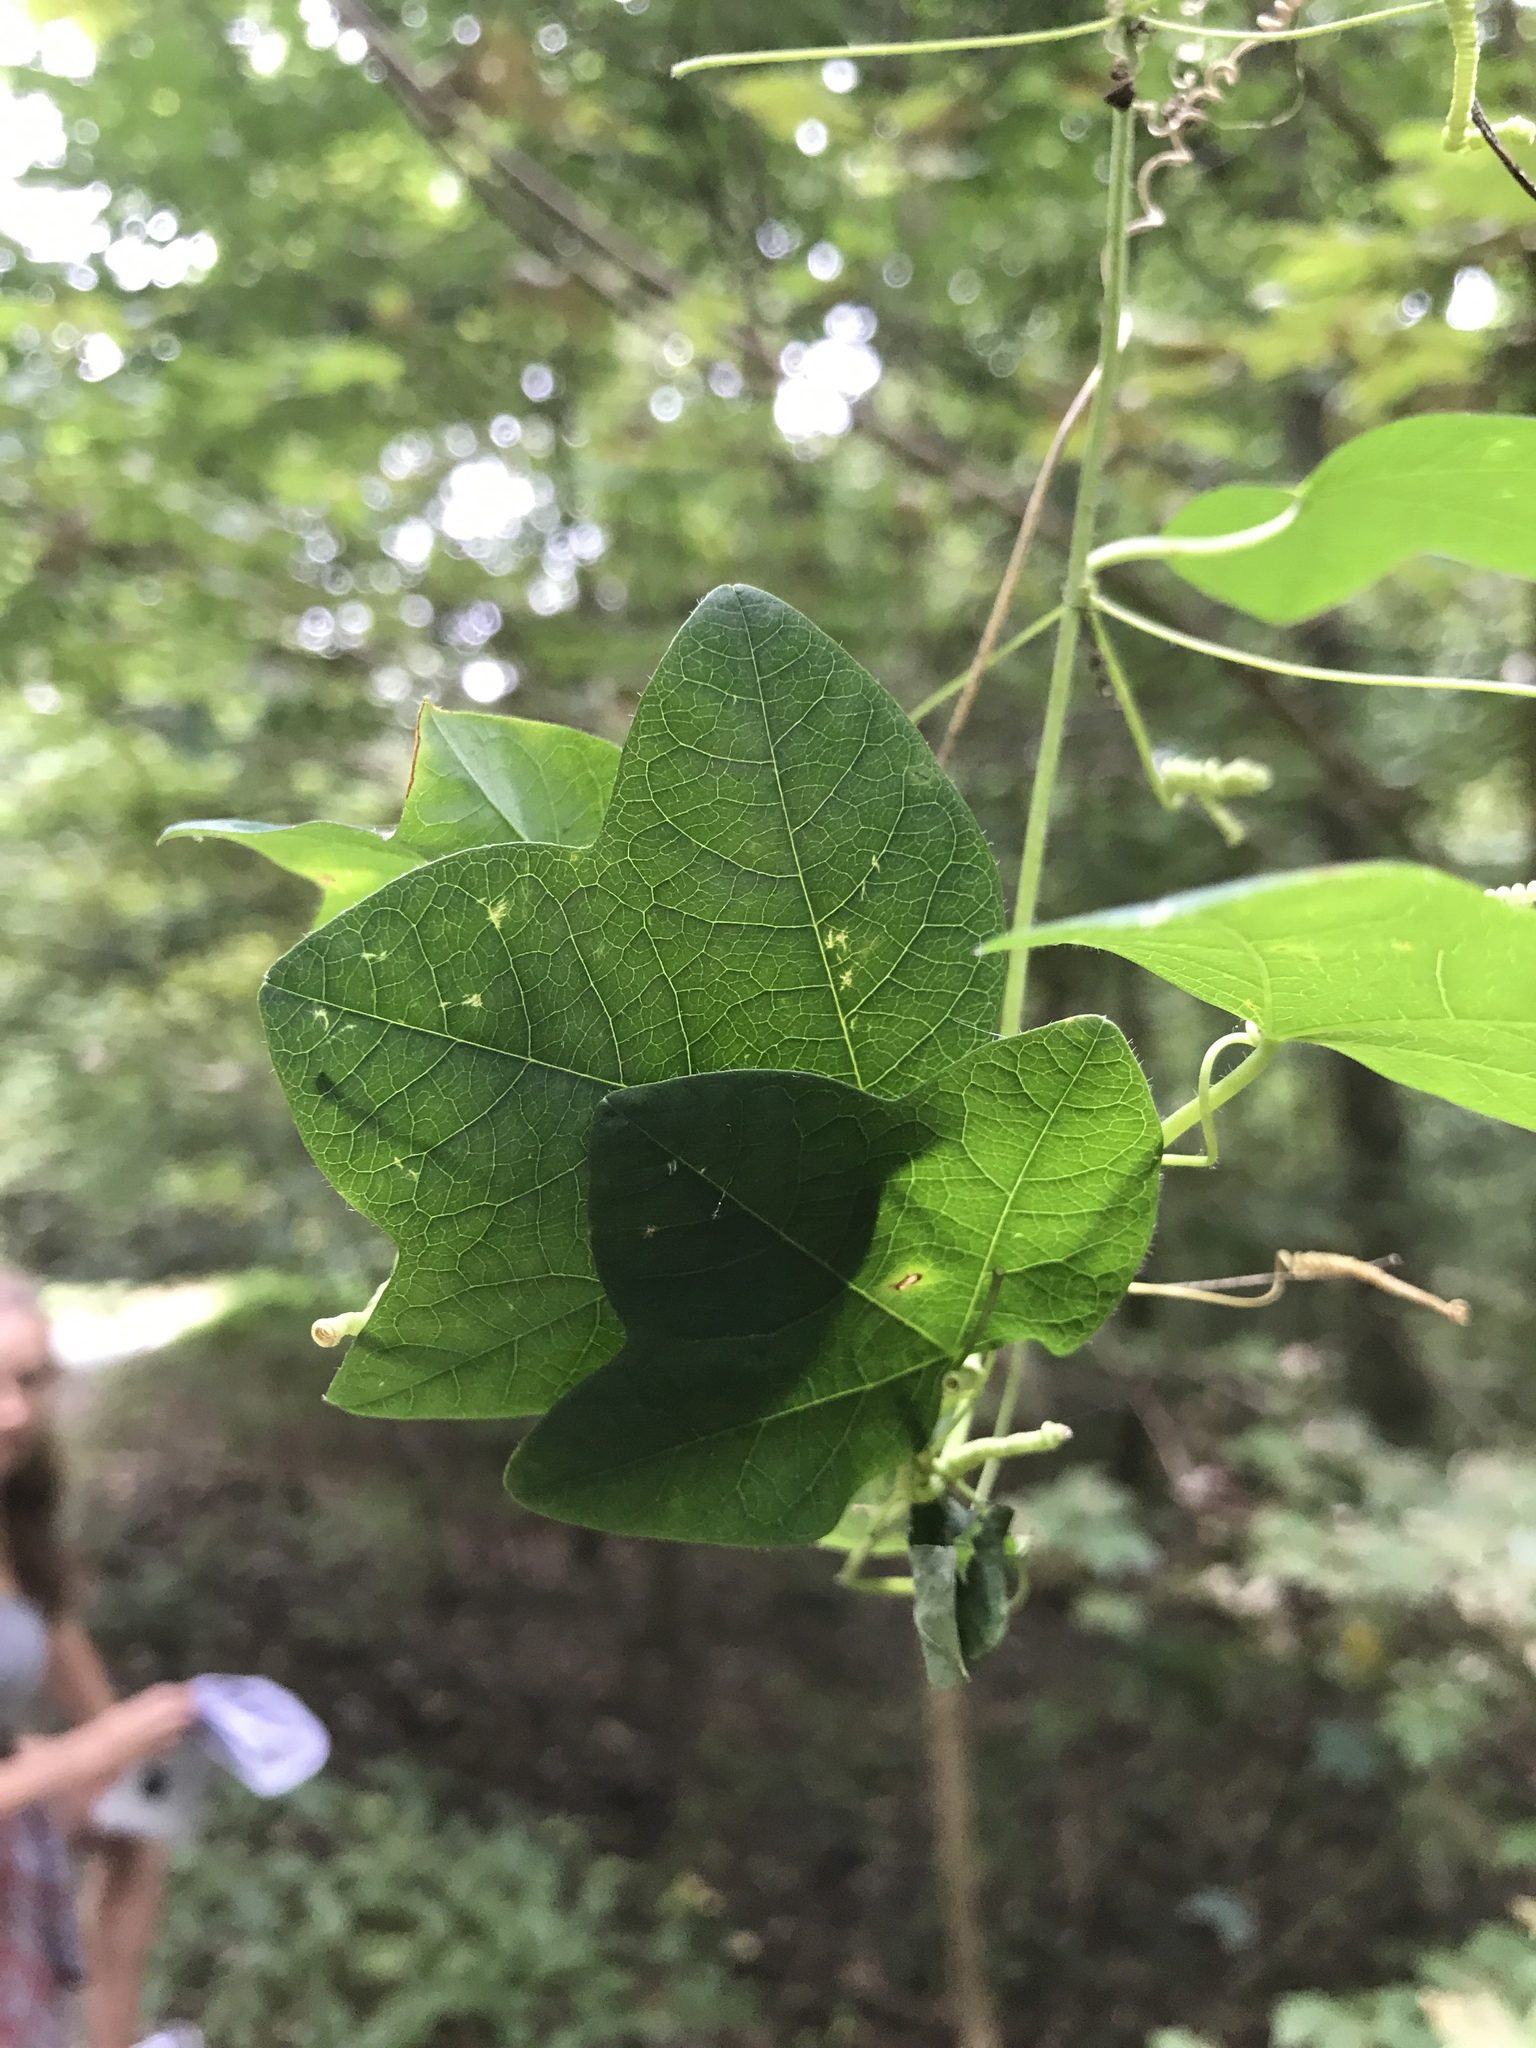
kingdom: Plantae
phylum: Tracheophyta
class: Magnoliopsida
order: Malpighiales
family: Passifloraceae
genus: Passiflora
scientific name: Passiflora lutea
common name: Yellow passionflower
